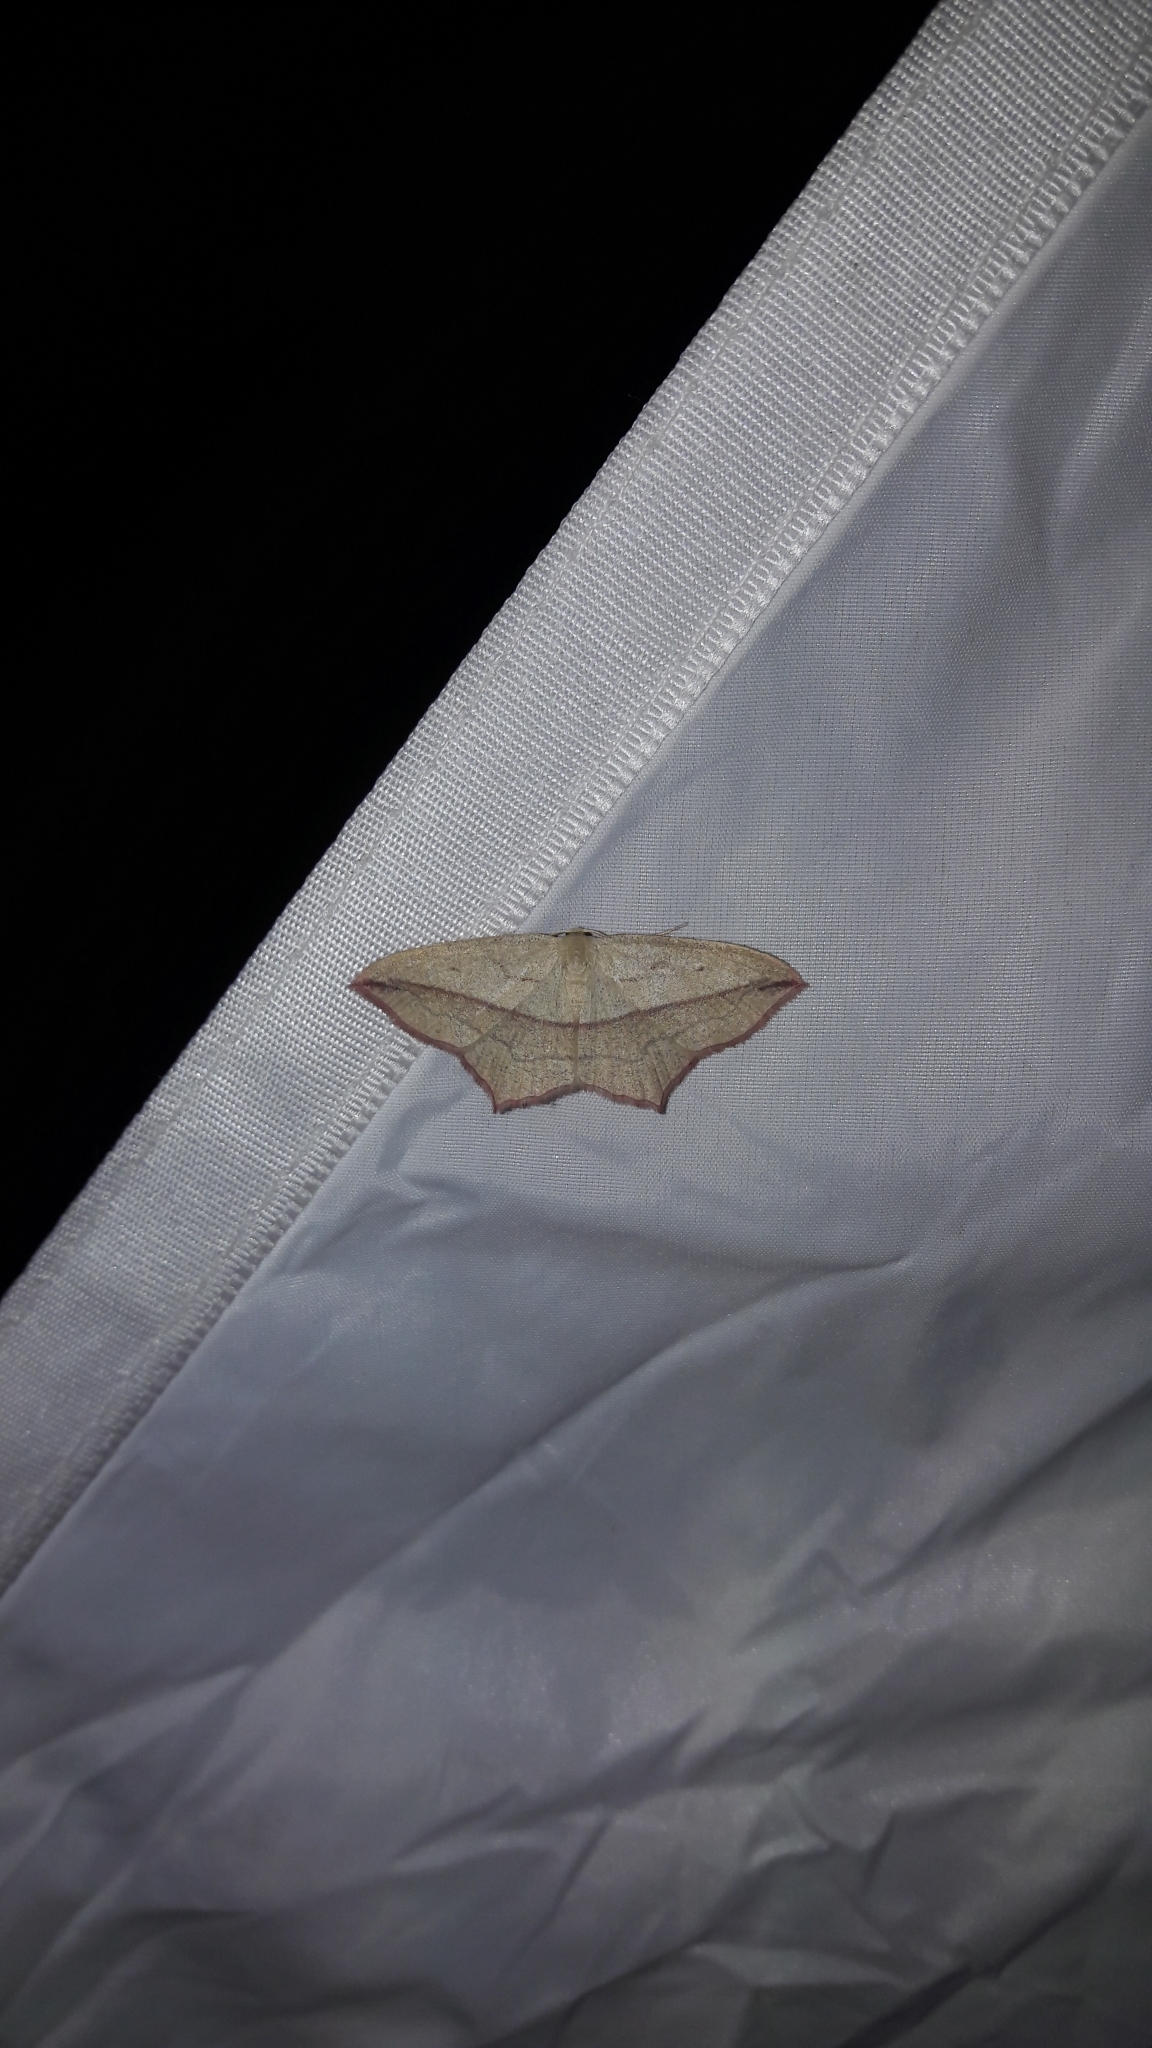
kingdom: Animalia
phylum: Arthropoda
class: Insecta
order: Lepidoptera
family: Geometridae
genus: Timandra
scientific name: Timandra comae
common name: Blood-vein
